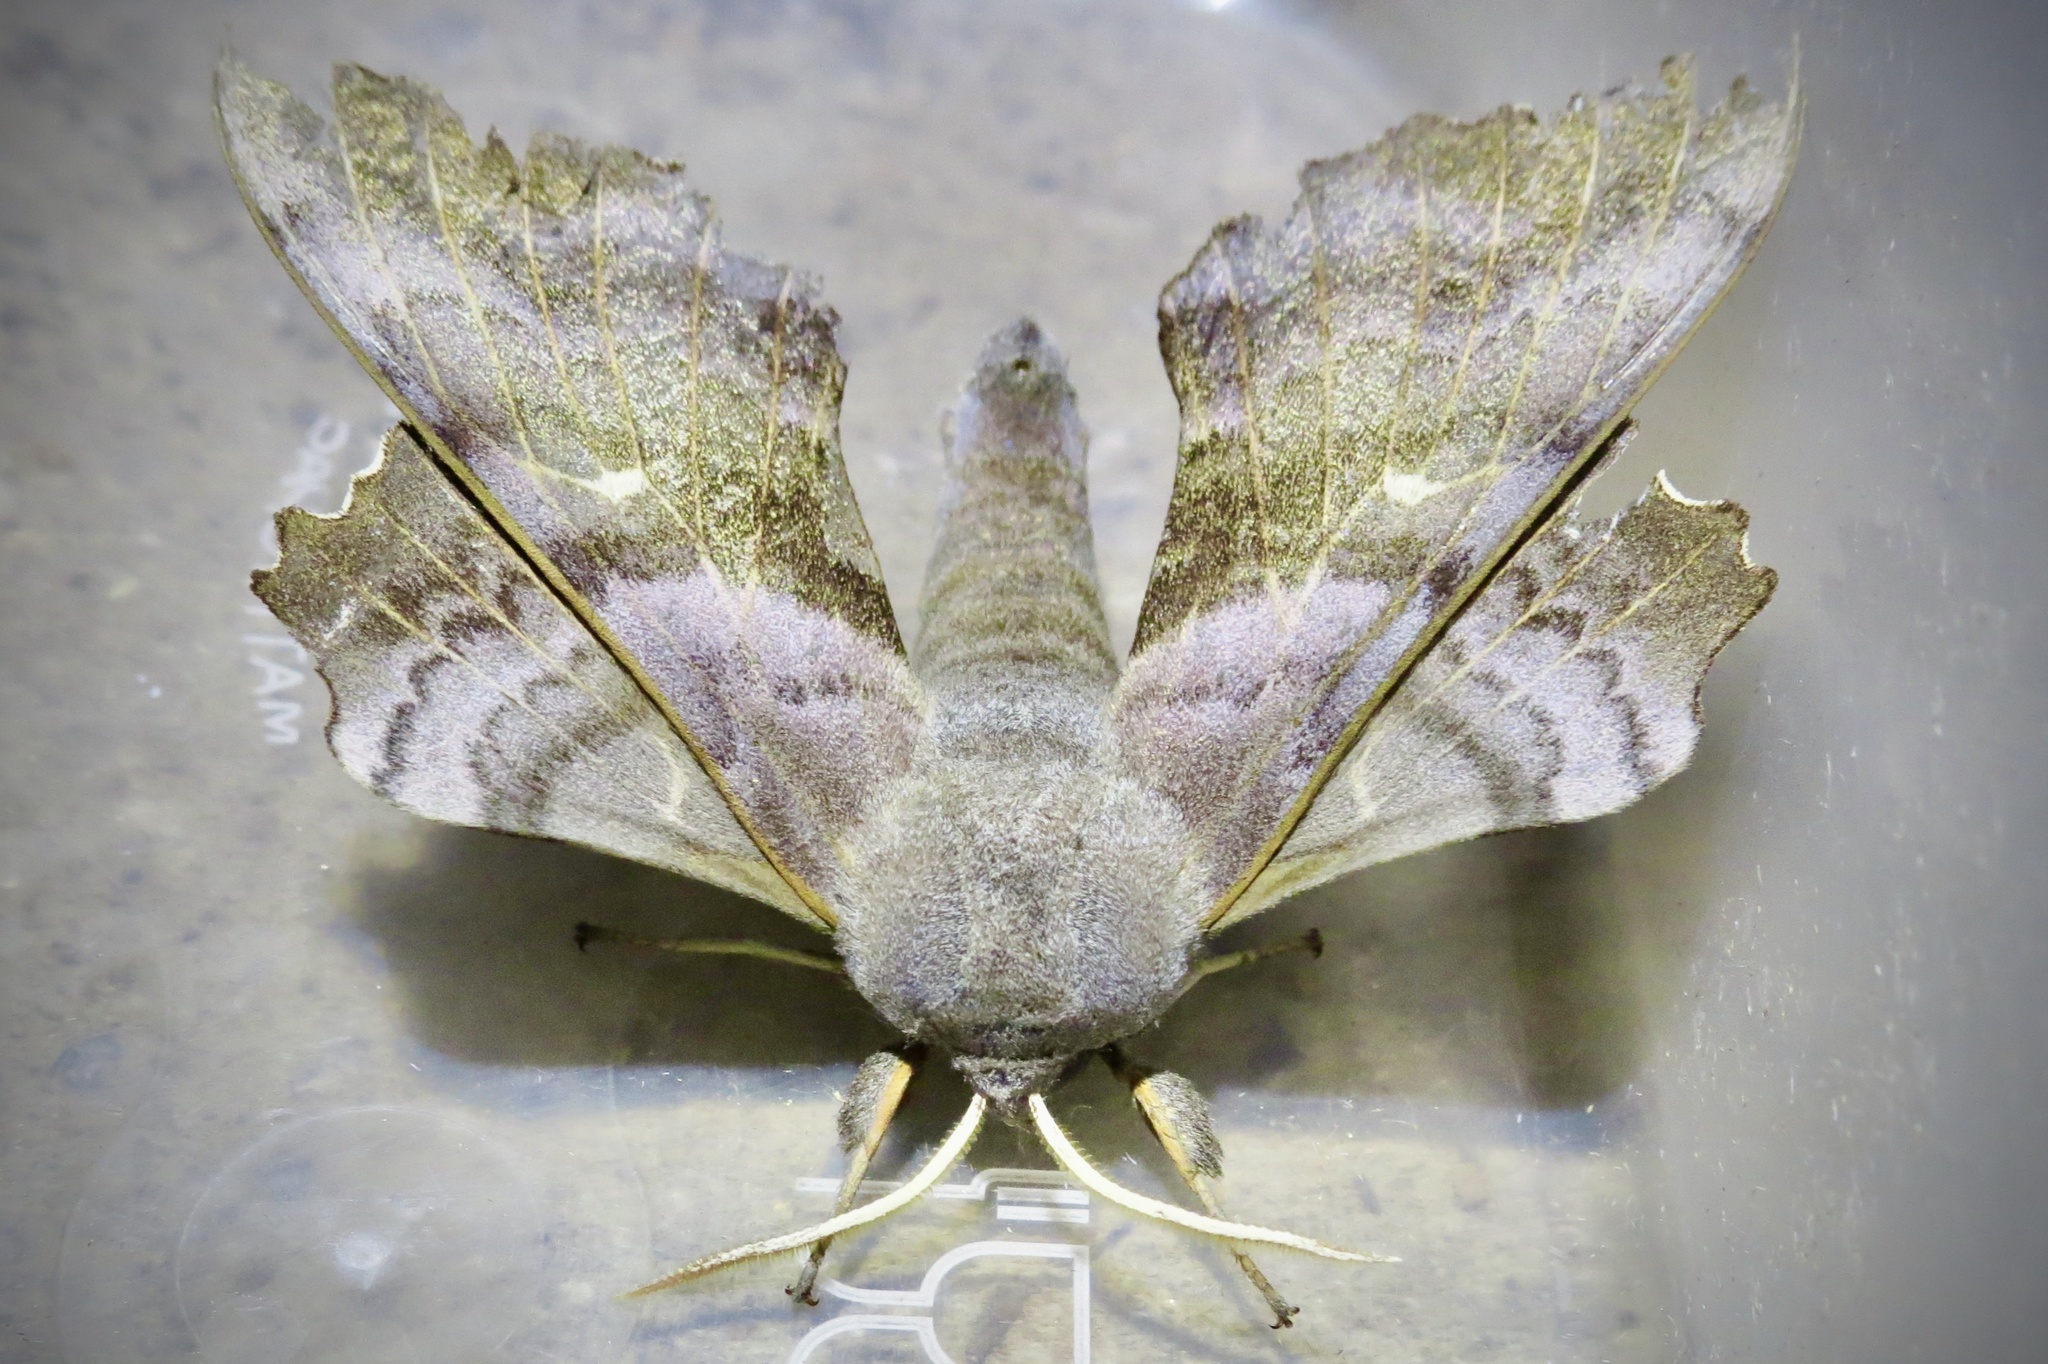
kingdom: Animalia
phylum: Arthropoda
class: Insecta
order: Lepidoptera
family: Sphingidae
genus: Laothoe
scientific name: Laothoe populi
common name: Poplar hawk-moth
